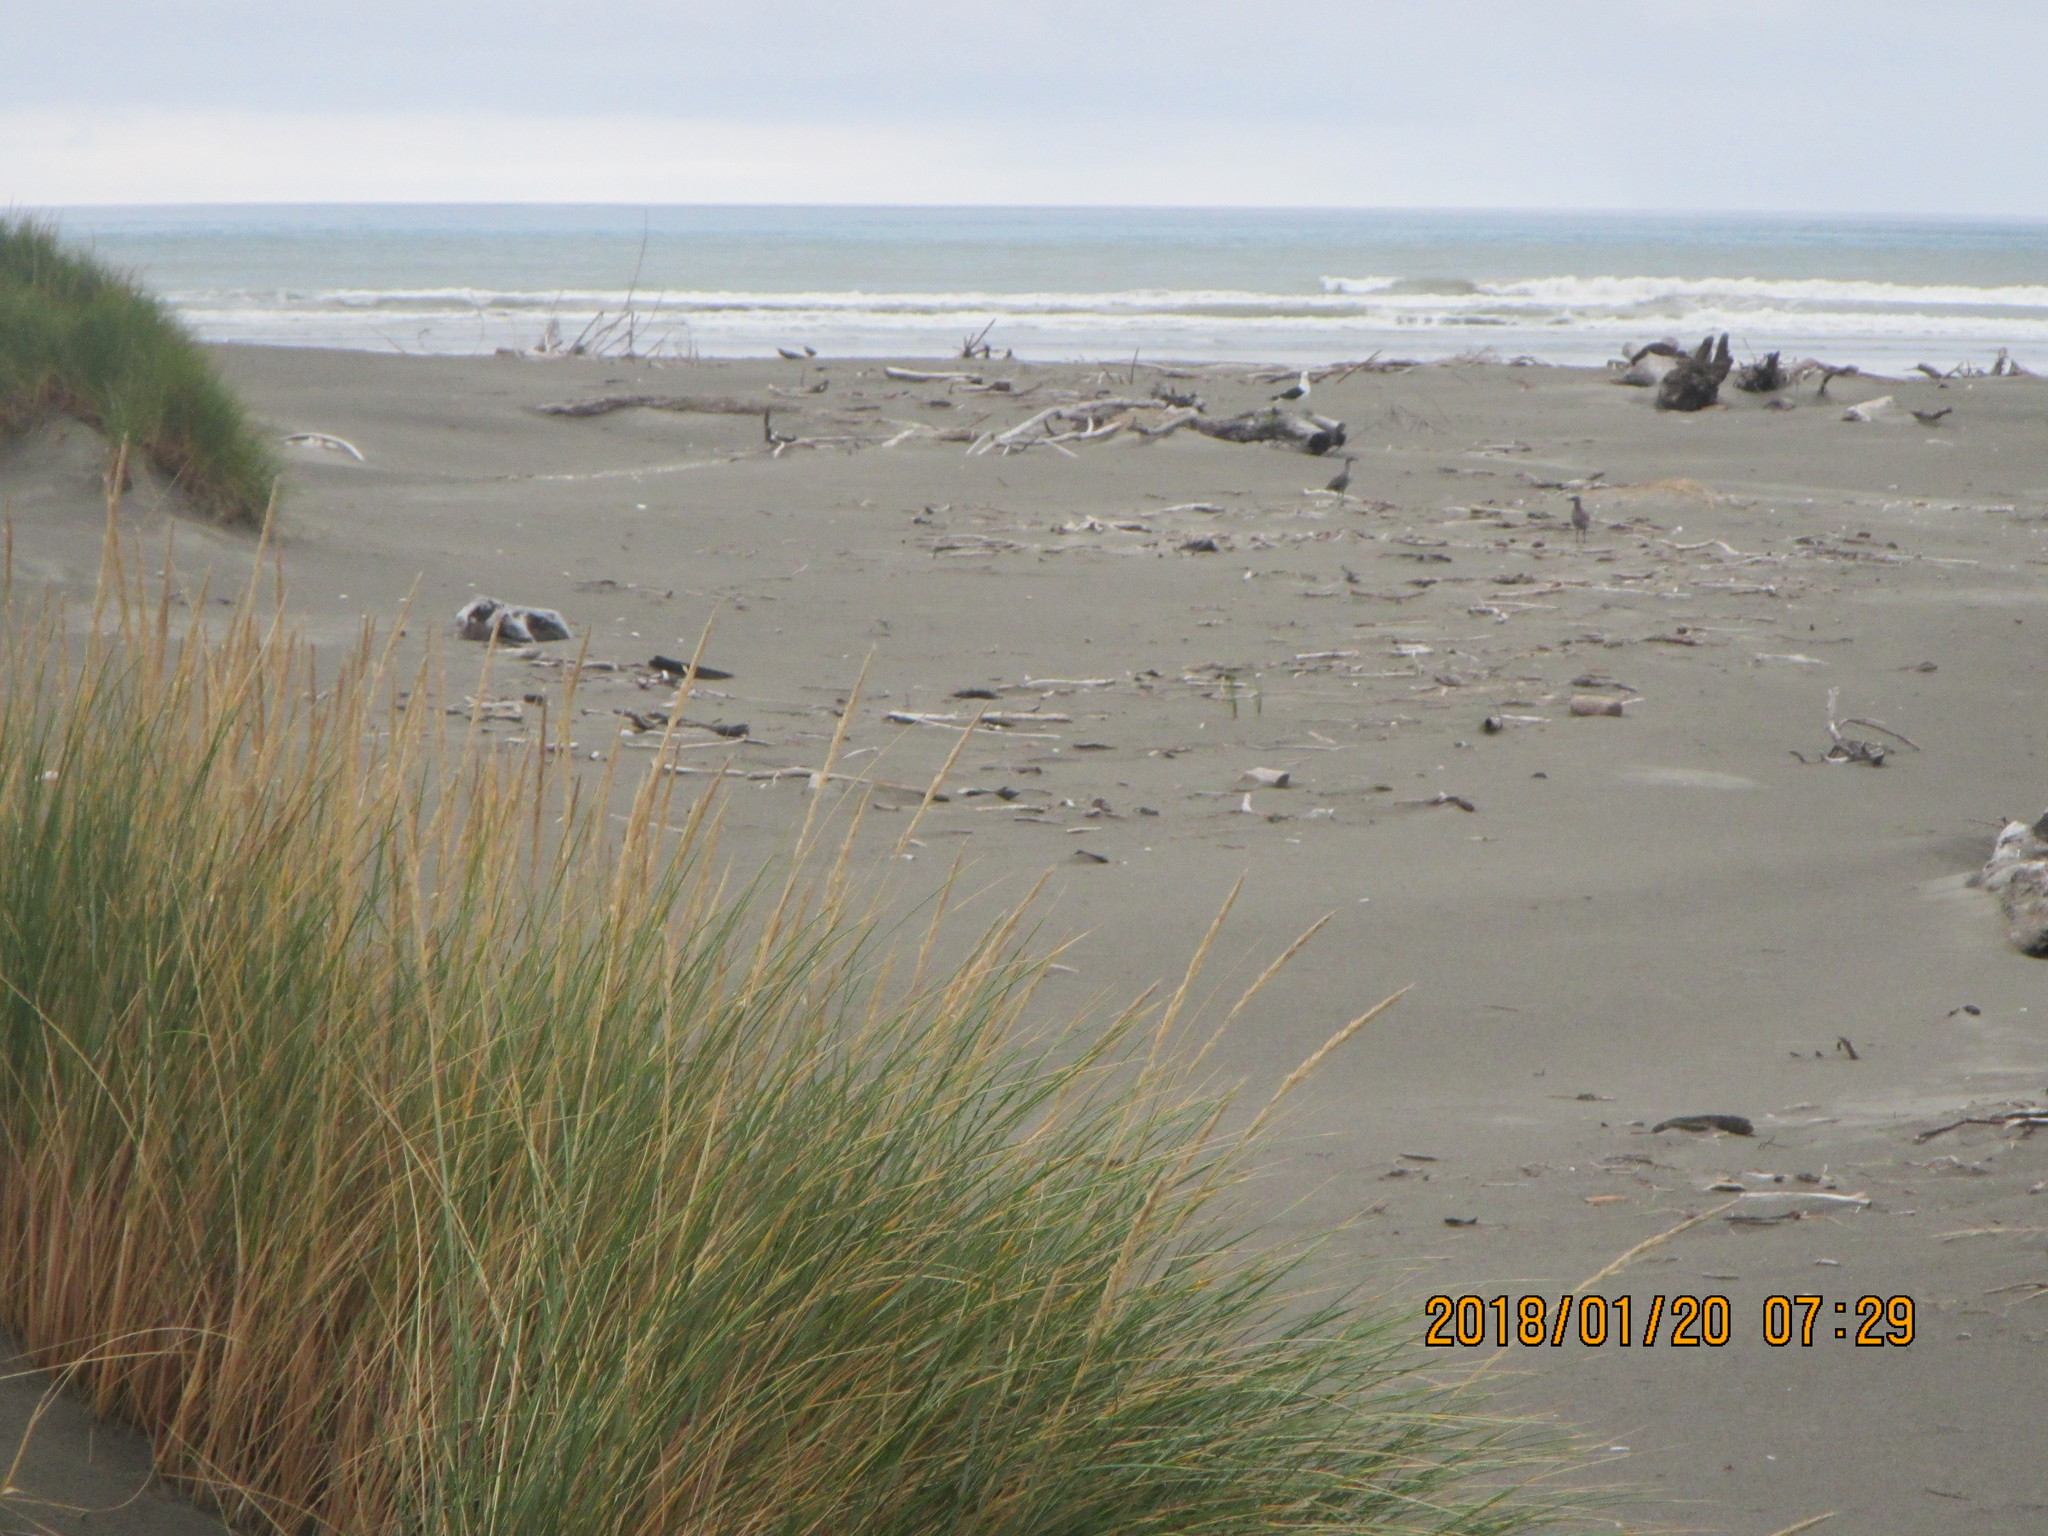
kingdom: Animalia
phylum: Chordata
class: Aves
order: Charadriiformes
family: Laridae
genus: Larus
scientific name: Larus dominicanus
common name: Kelp gull
